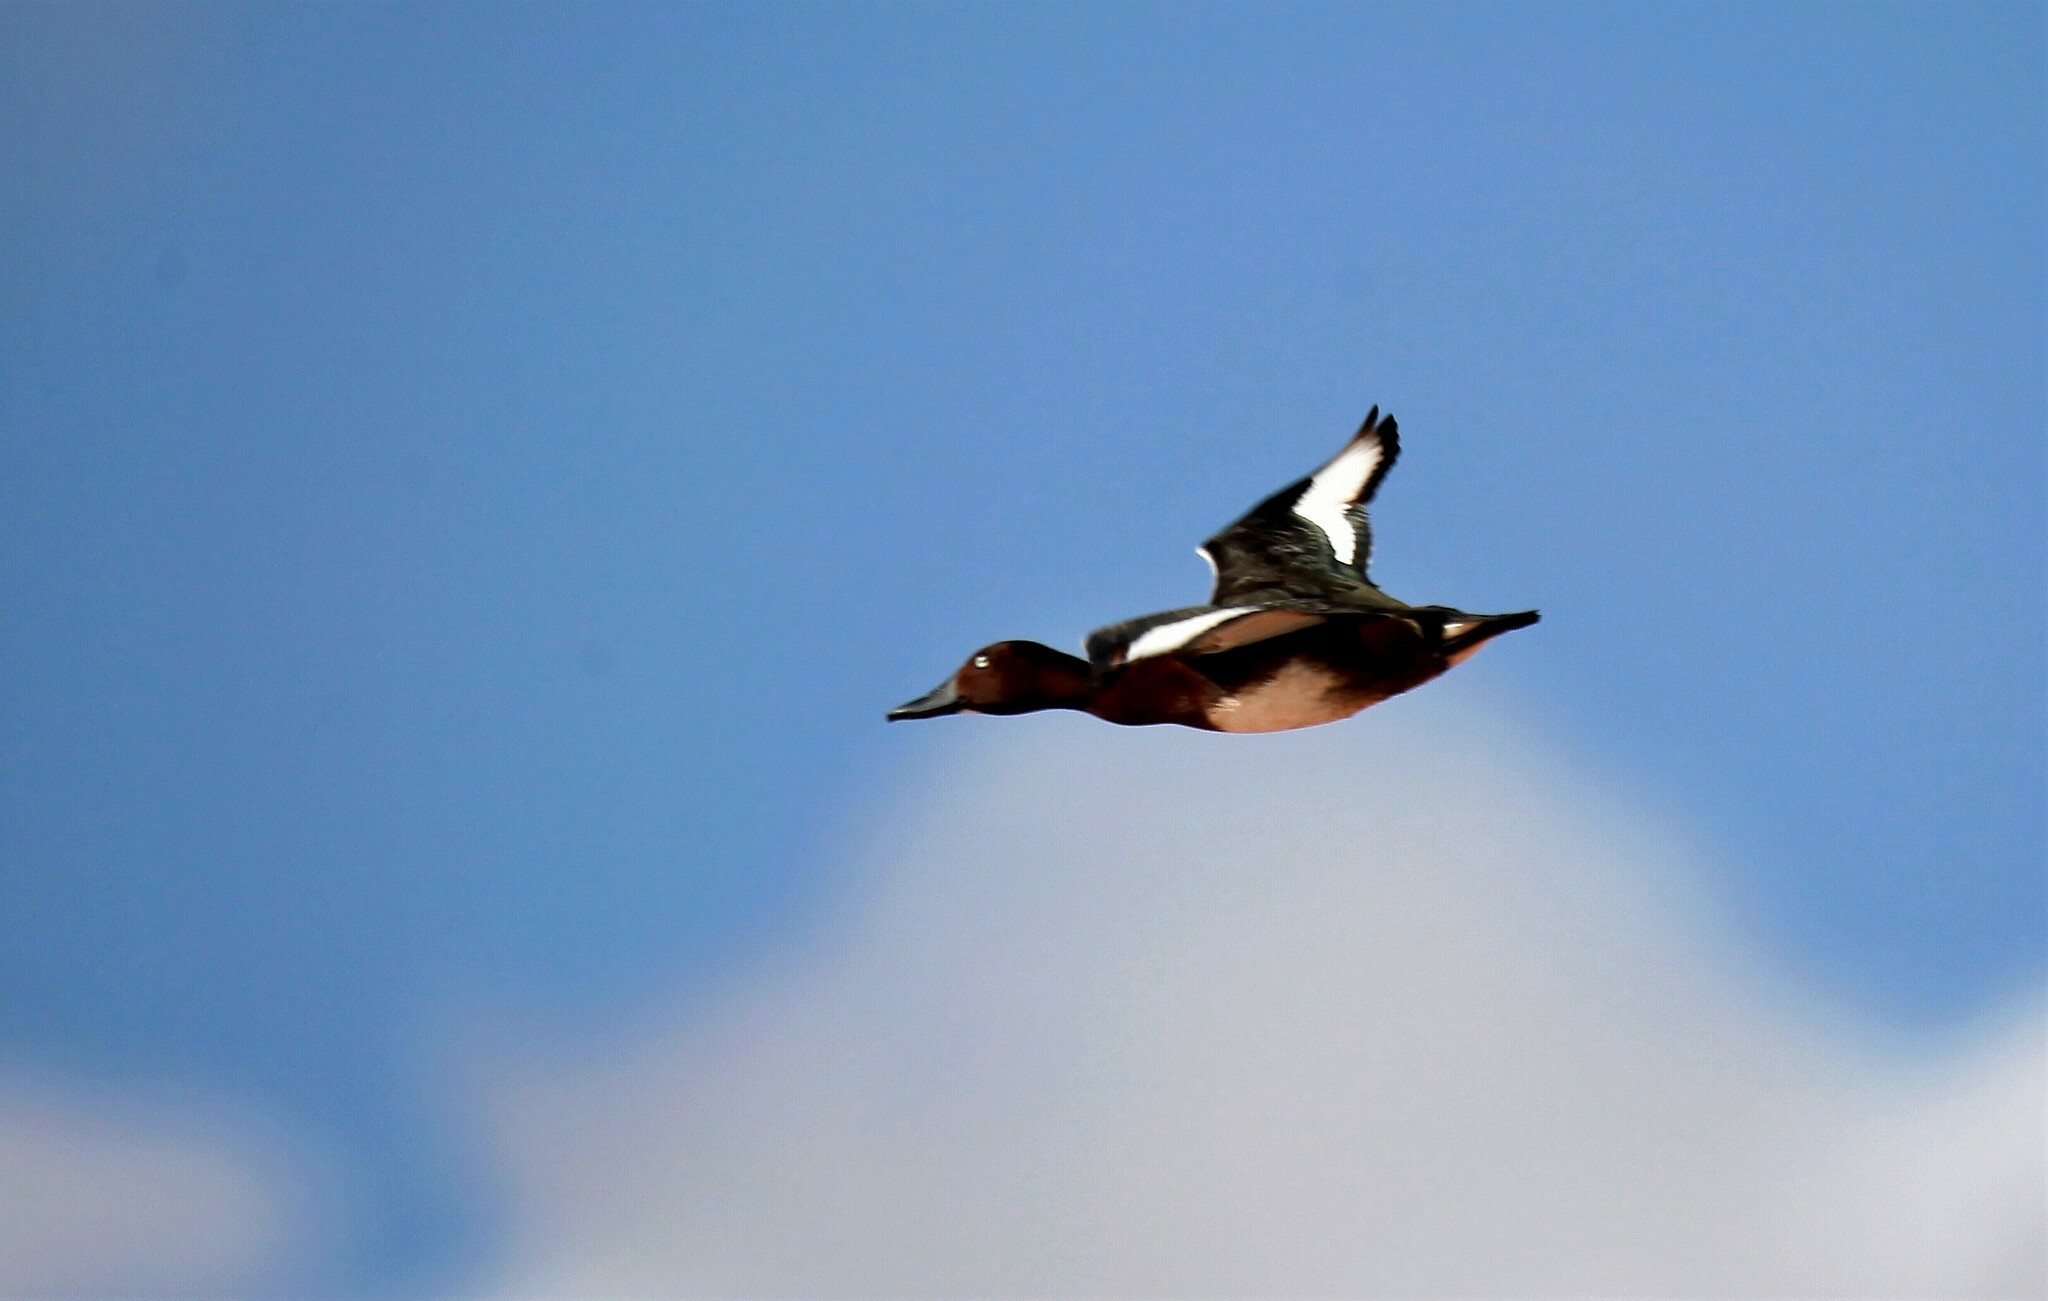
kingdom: Animalia
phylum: Chordata
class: Aves
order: Anseriformes
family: Anatidae
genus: Aythya
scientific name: Aythya nyroca
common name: Ferruginous duck
